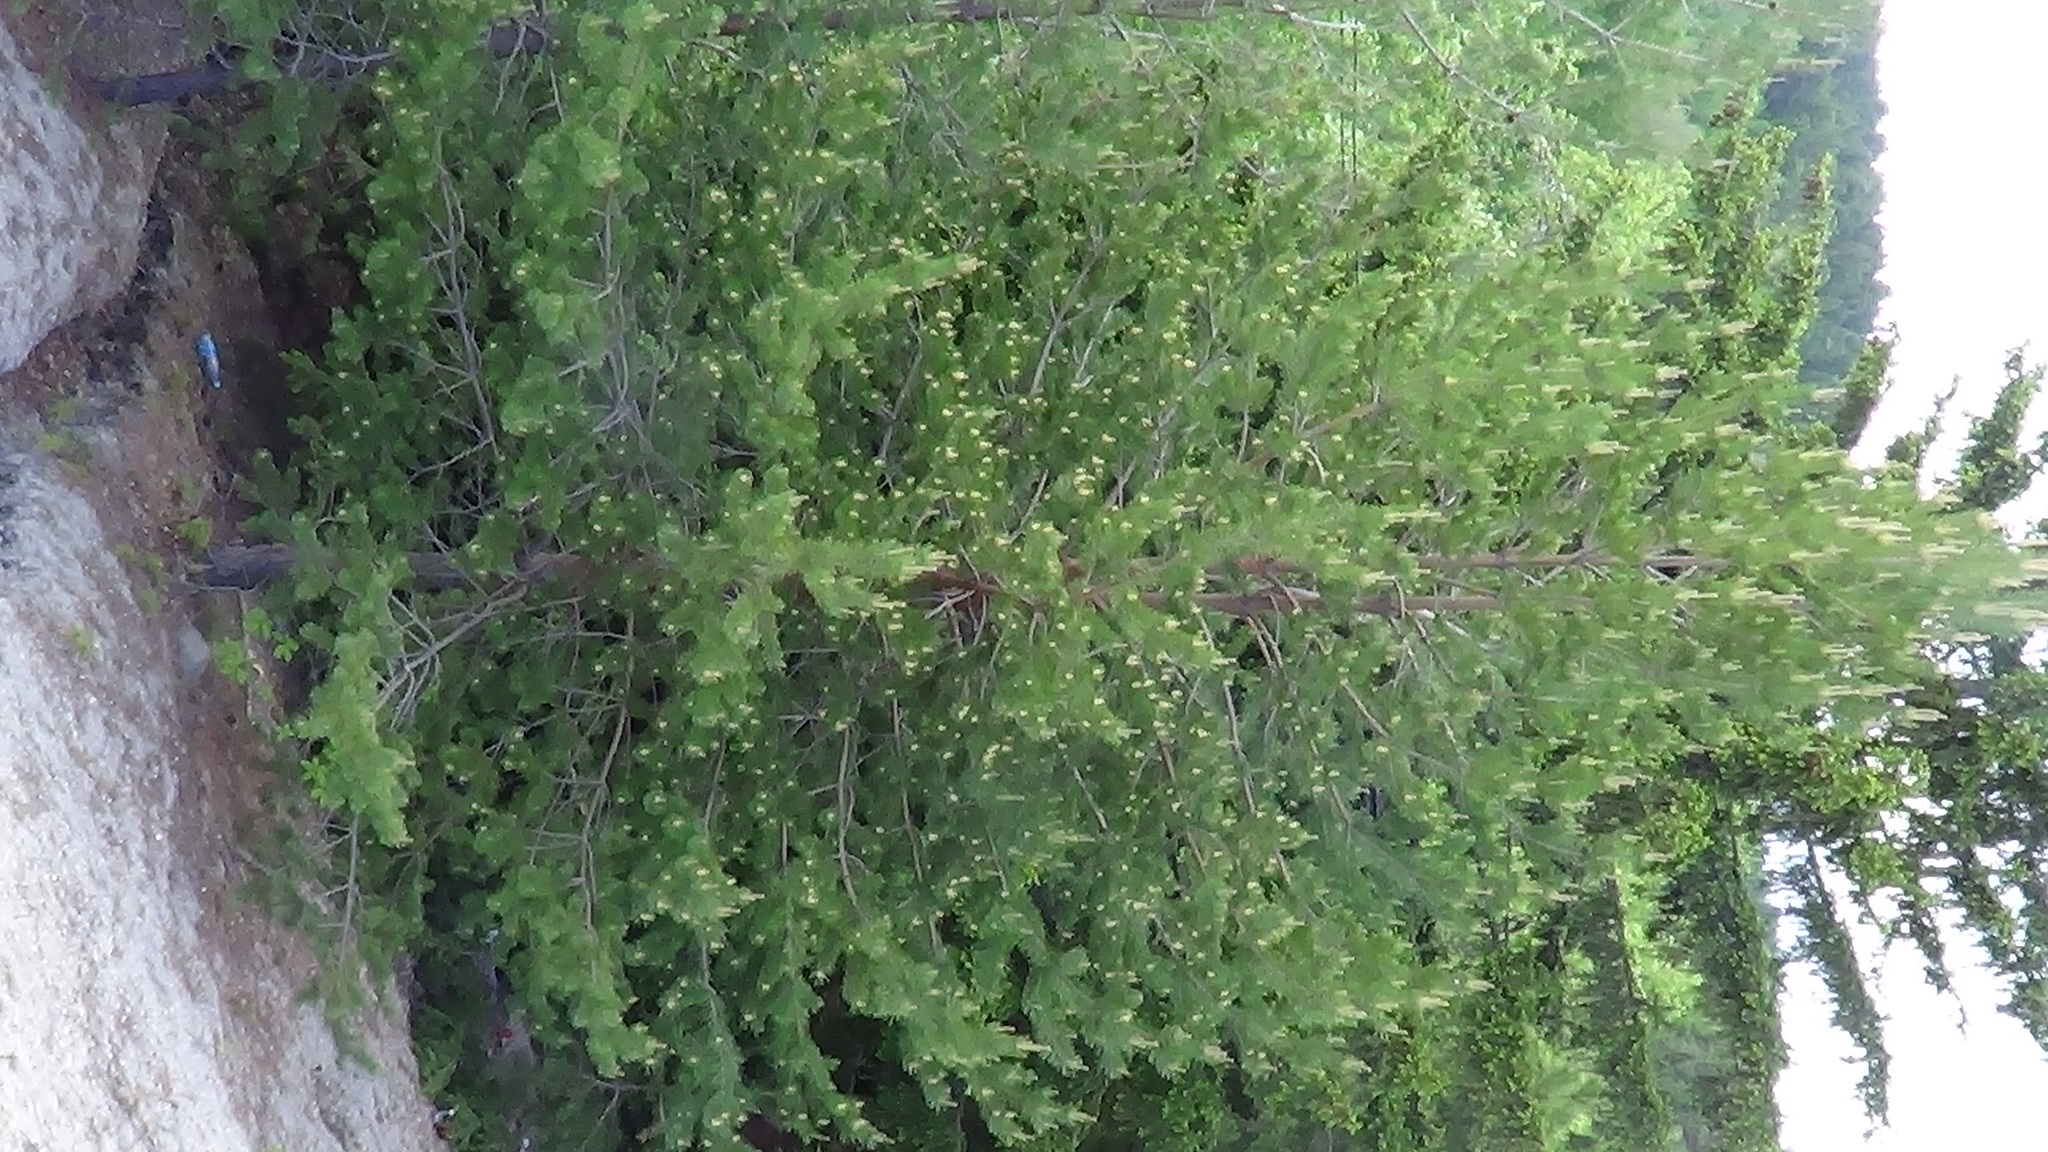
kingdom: Plantae
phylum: Tracheophyta
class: Pinopsida
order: Pinales
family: Pinaceae
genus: Pinus
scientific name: Pinus sylvestris
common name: Scots pine
